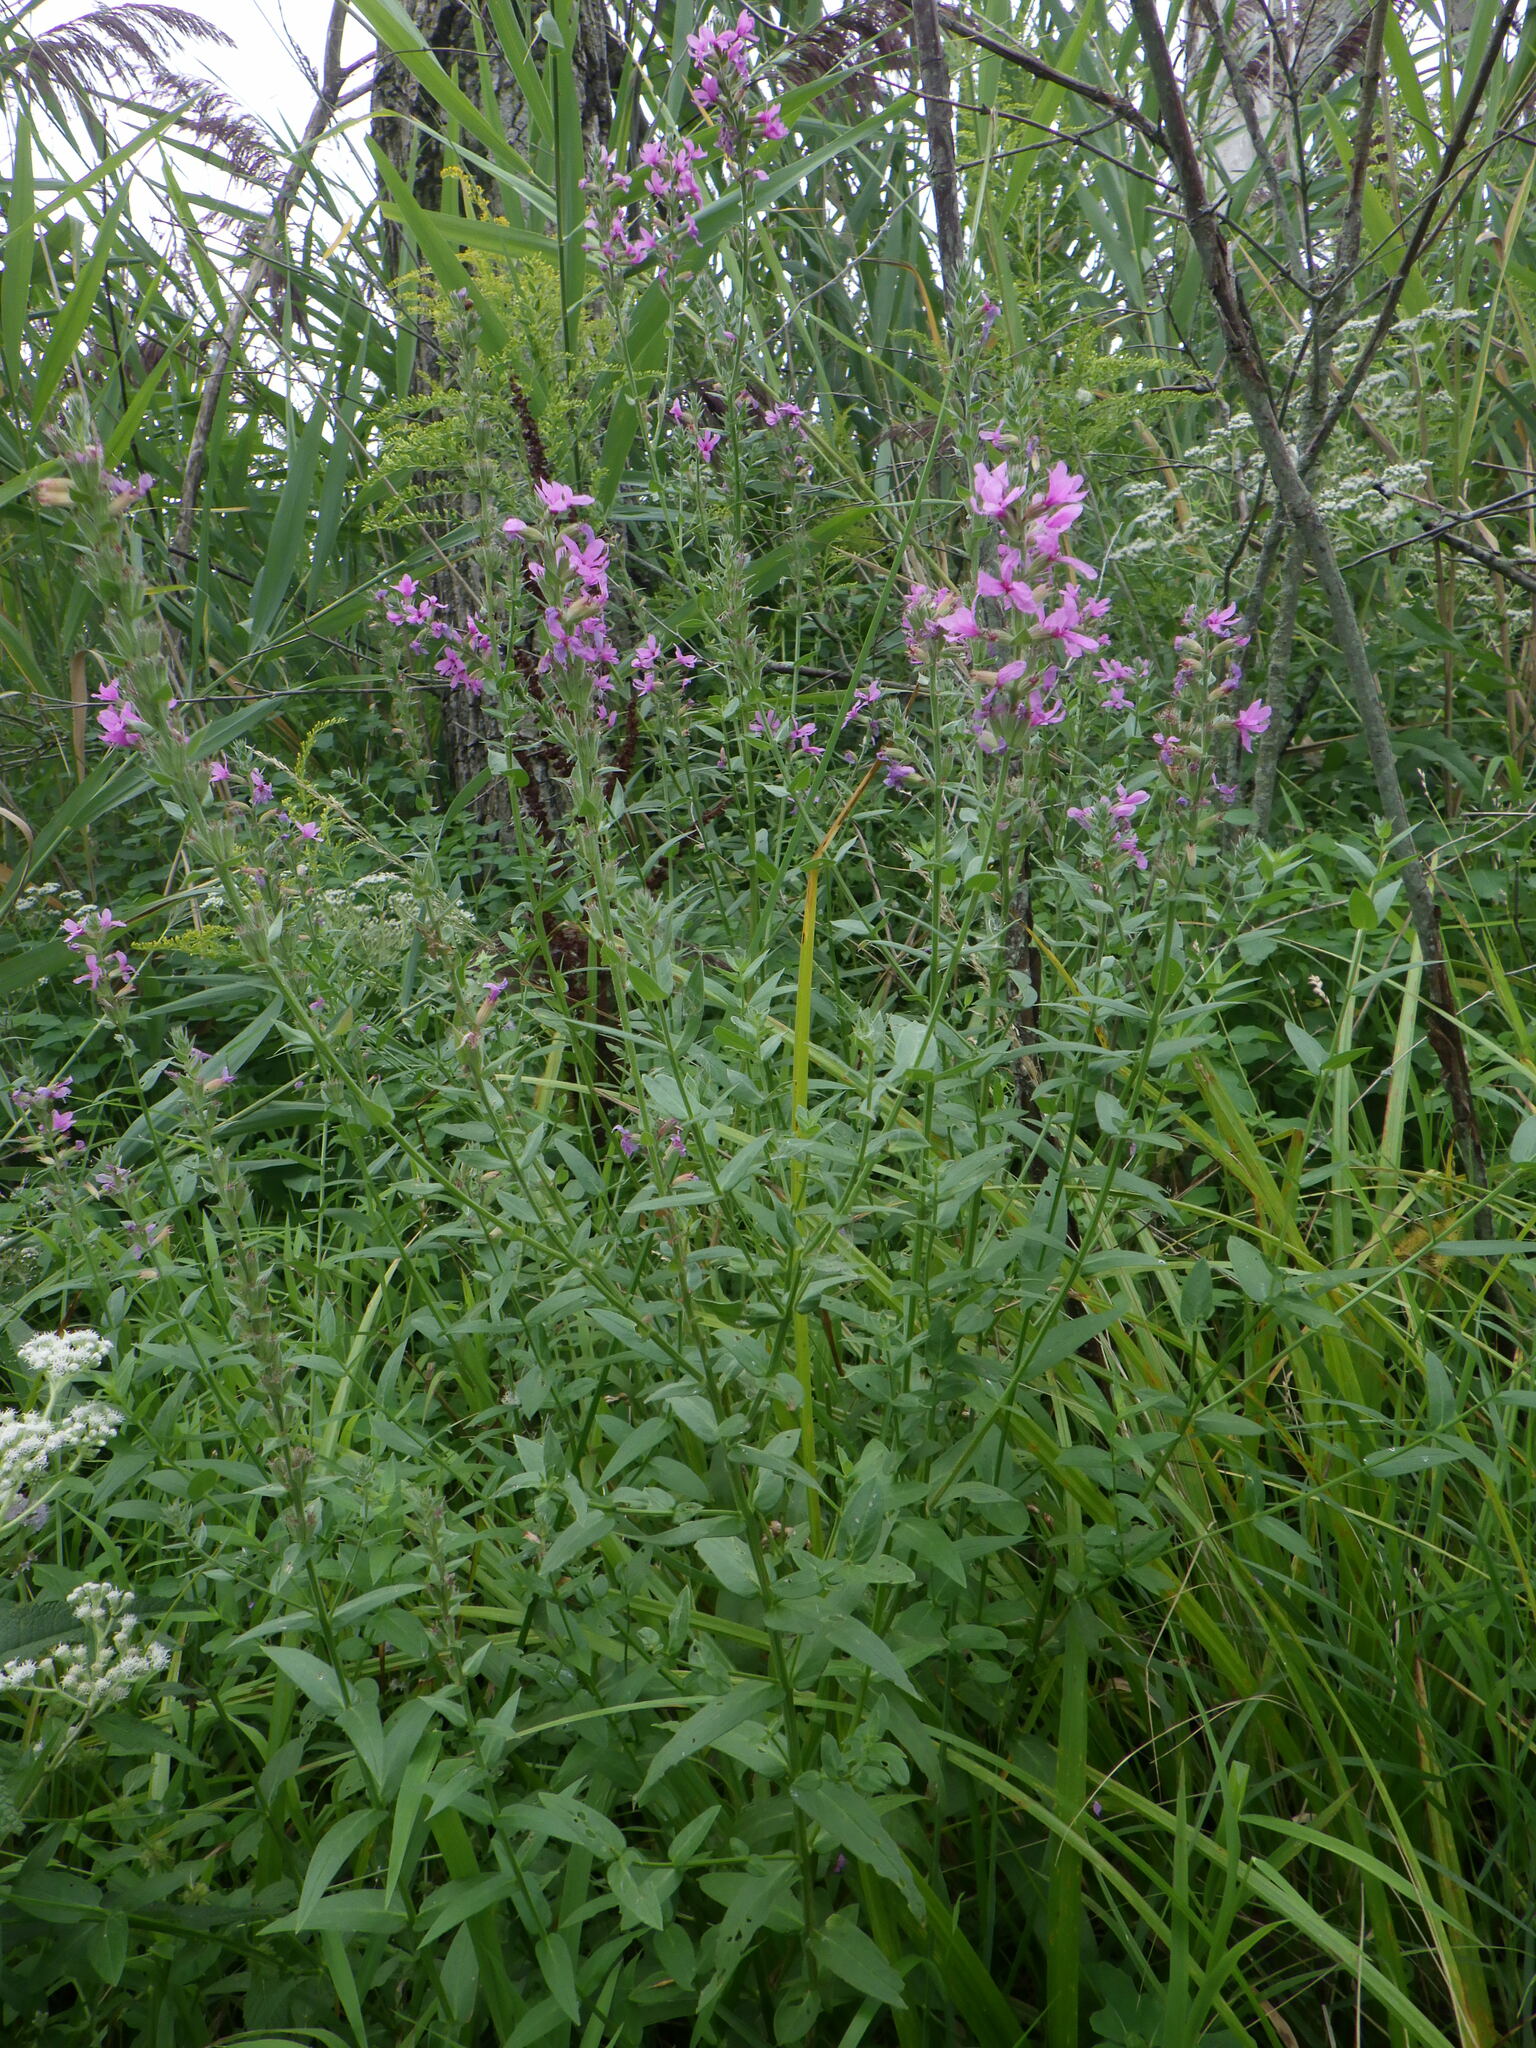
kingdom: Plantae
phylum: Tracheophyta
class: Magnoliopsida
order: Myrtales
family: Lythraceae
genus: Lythrum
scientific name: Lythrum salicaria
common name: Purple loosestrife
